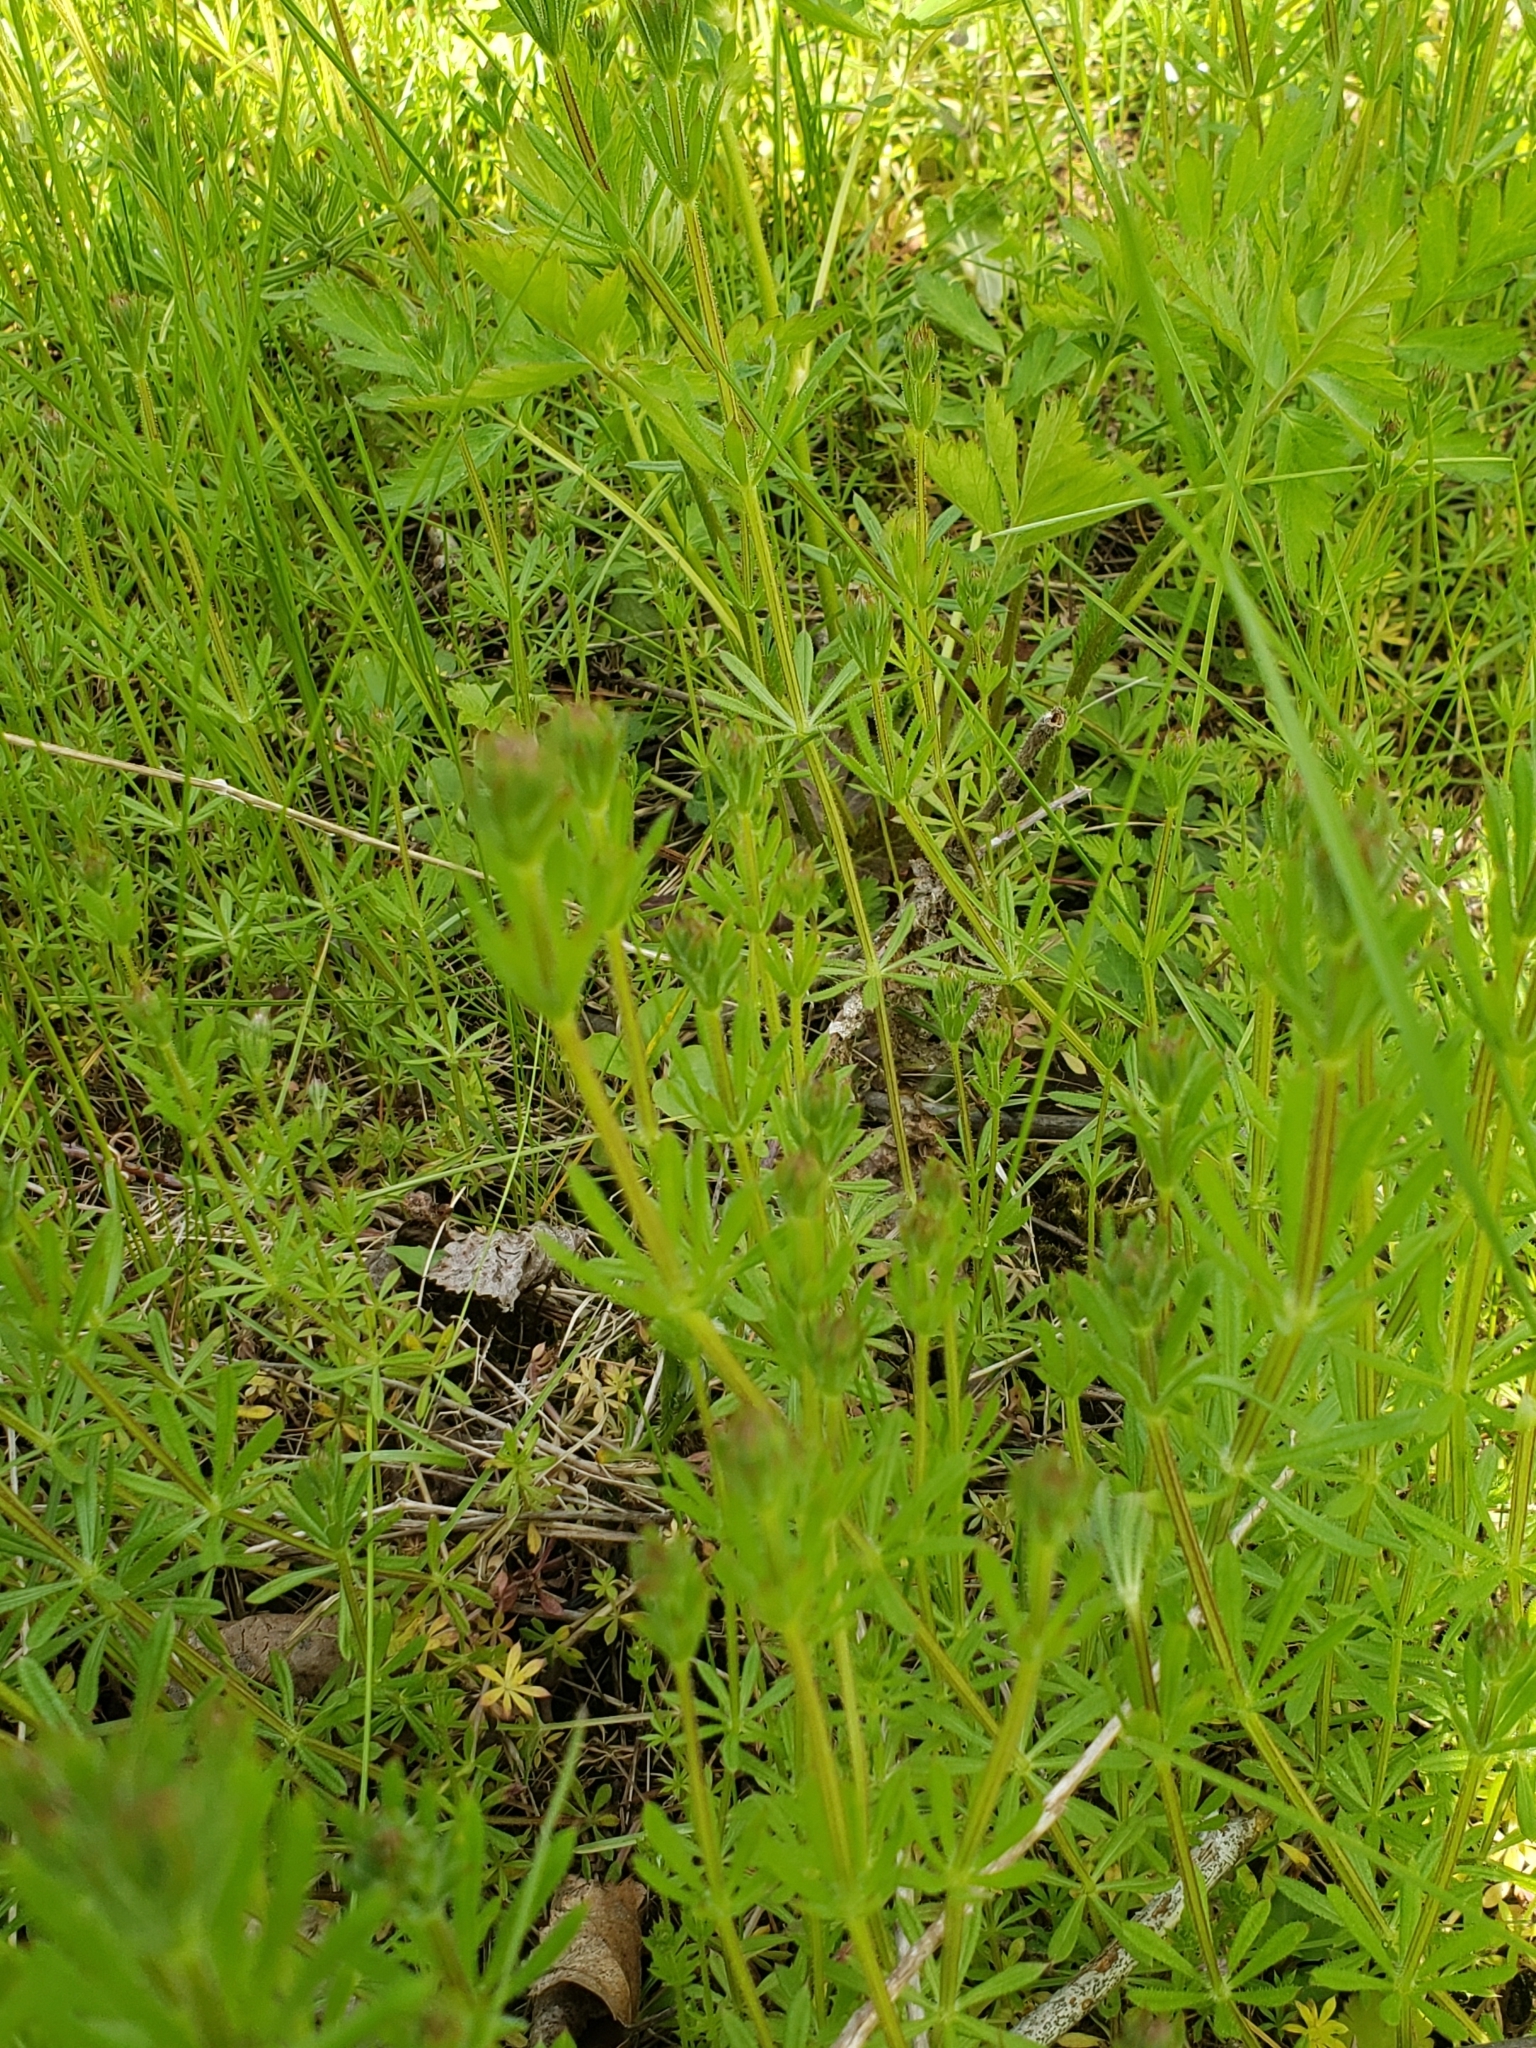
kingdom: Plantae
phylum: Tracheophyta
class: Magnoliopsida
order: Gentianales
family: Rubiaceae
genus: Galium
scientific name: Galium aparine
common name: Cleavers
